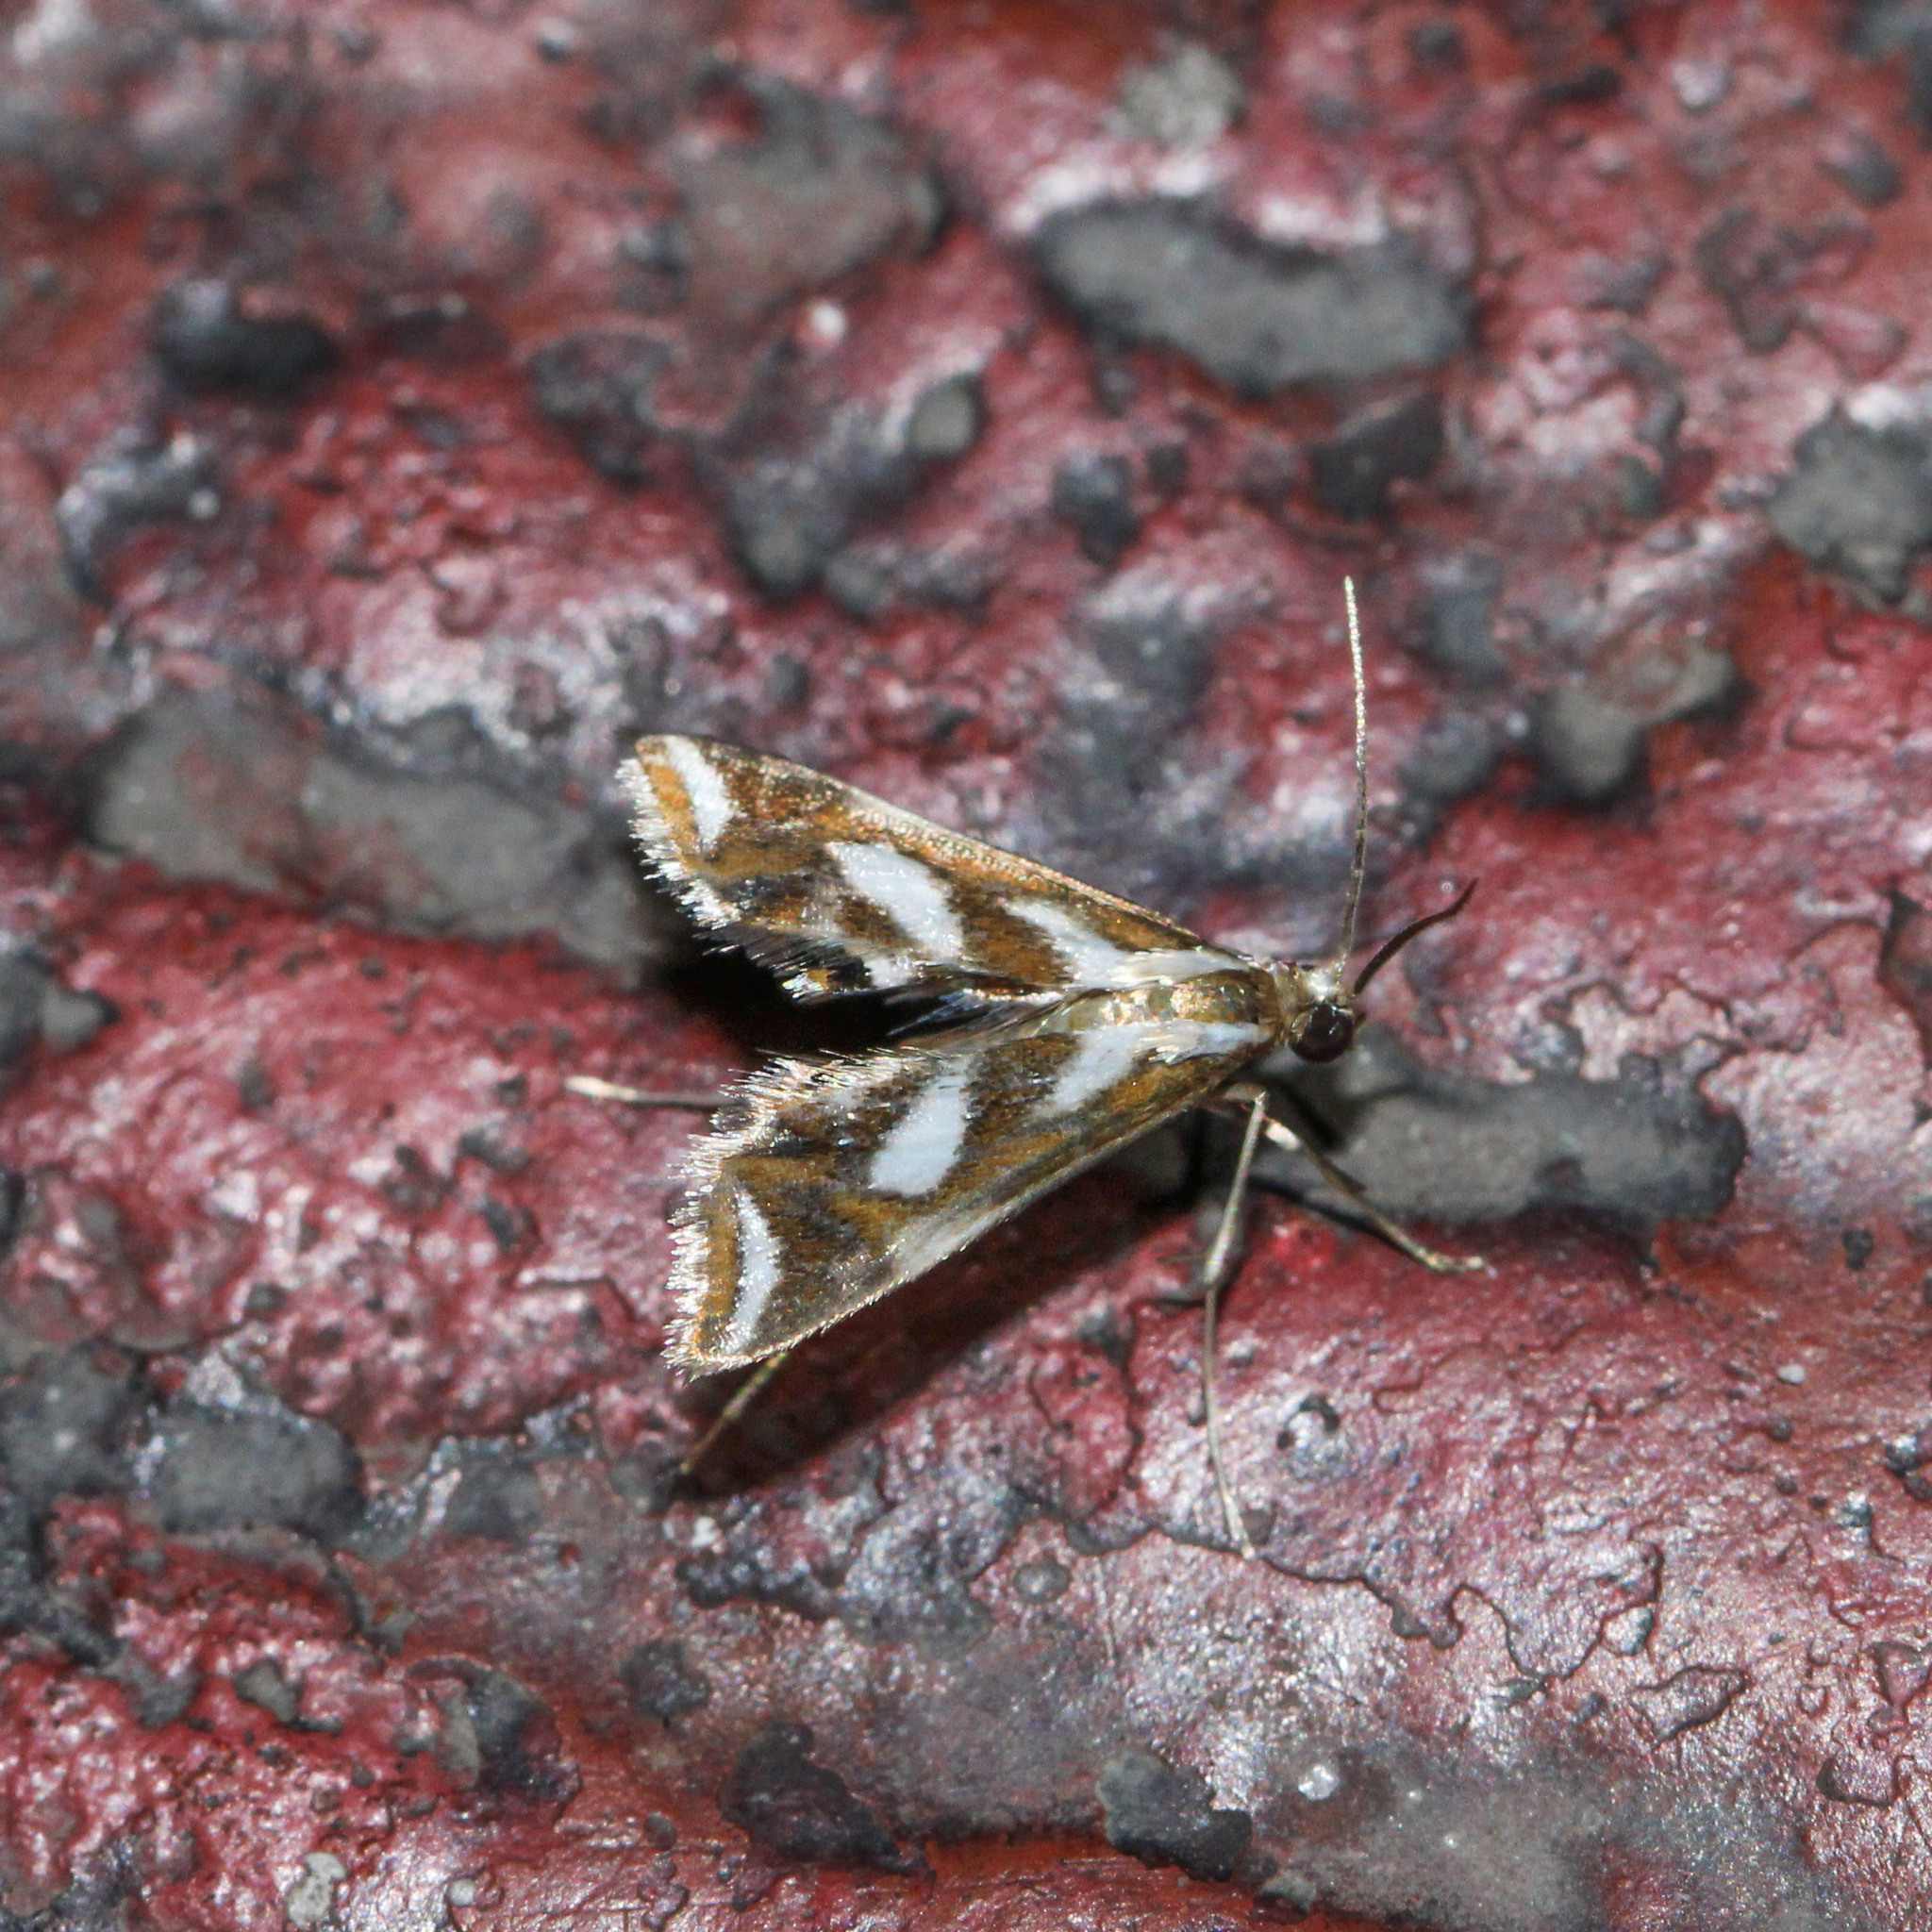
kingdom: Animalia
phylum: Arthropoda
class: Insecta
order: Lepidoptera
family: Crambidae
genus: Chrysendeton
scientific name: Chrysendeton imitabilis
